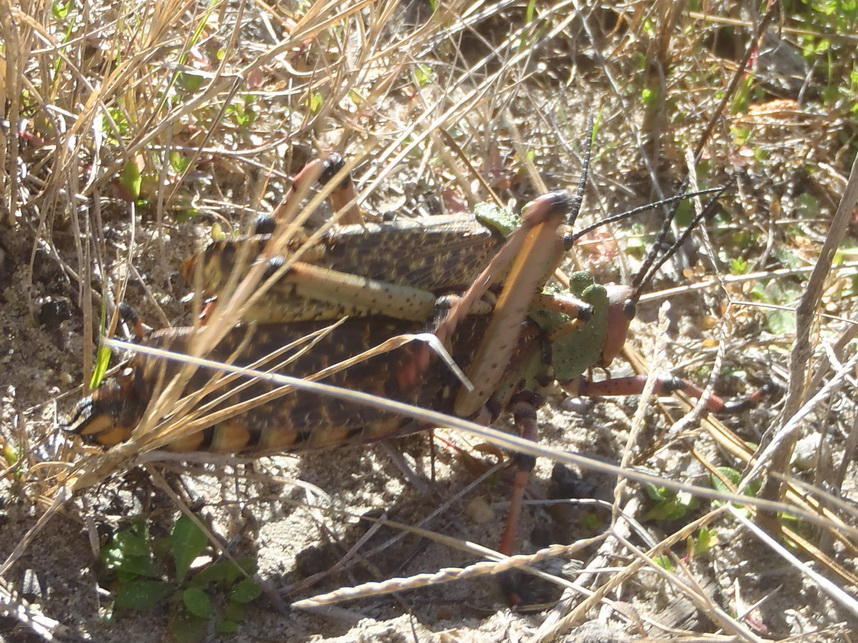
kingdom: Animalia
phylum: Arthropoda
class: Insecta
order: Orthoptera
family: Pyrgomorphidae
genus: Phymateus
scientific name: Phymateus leprosus
